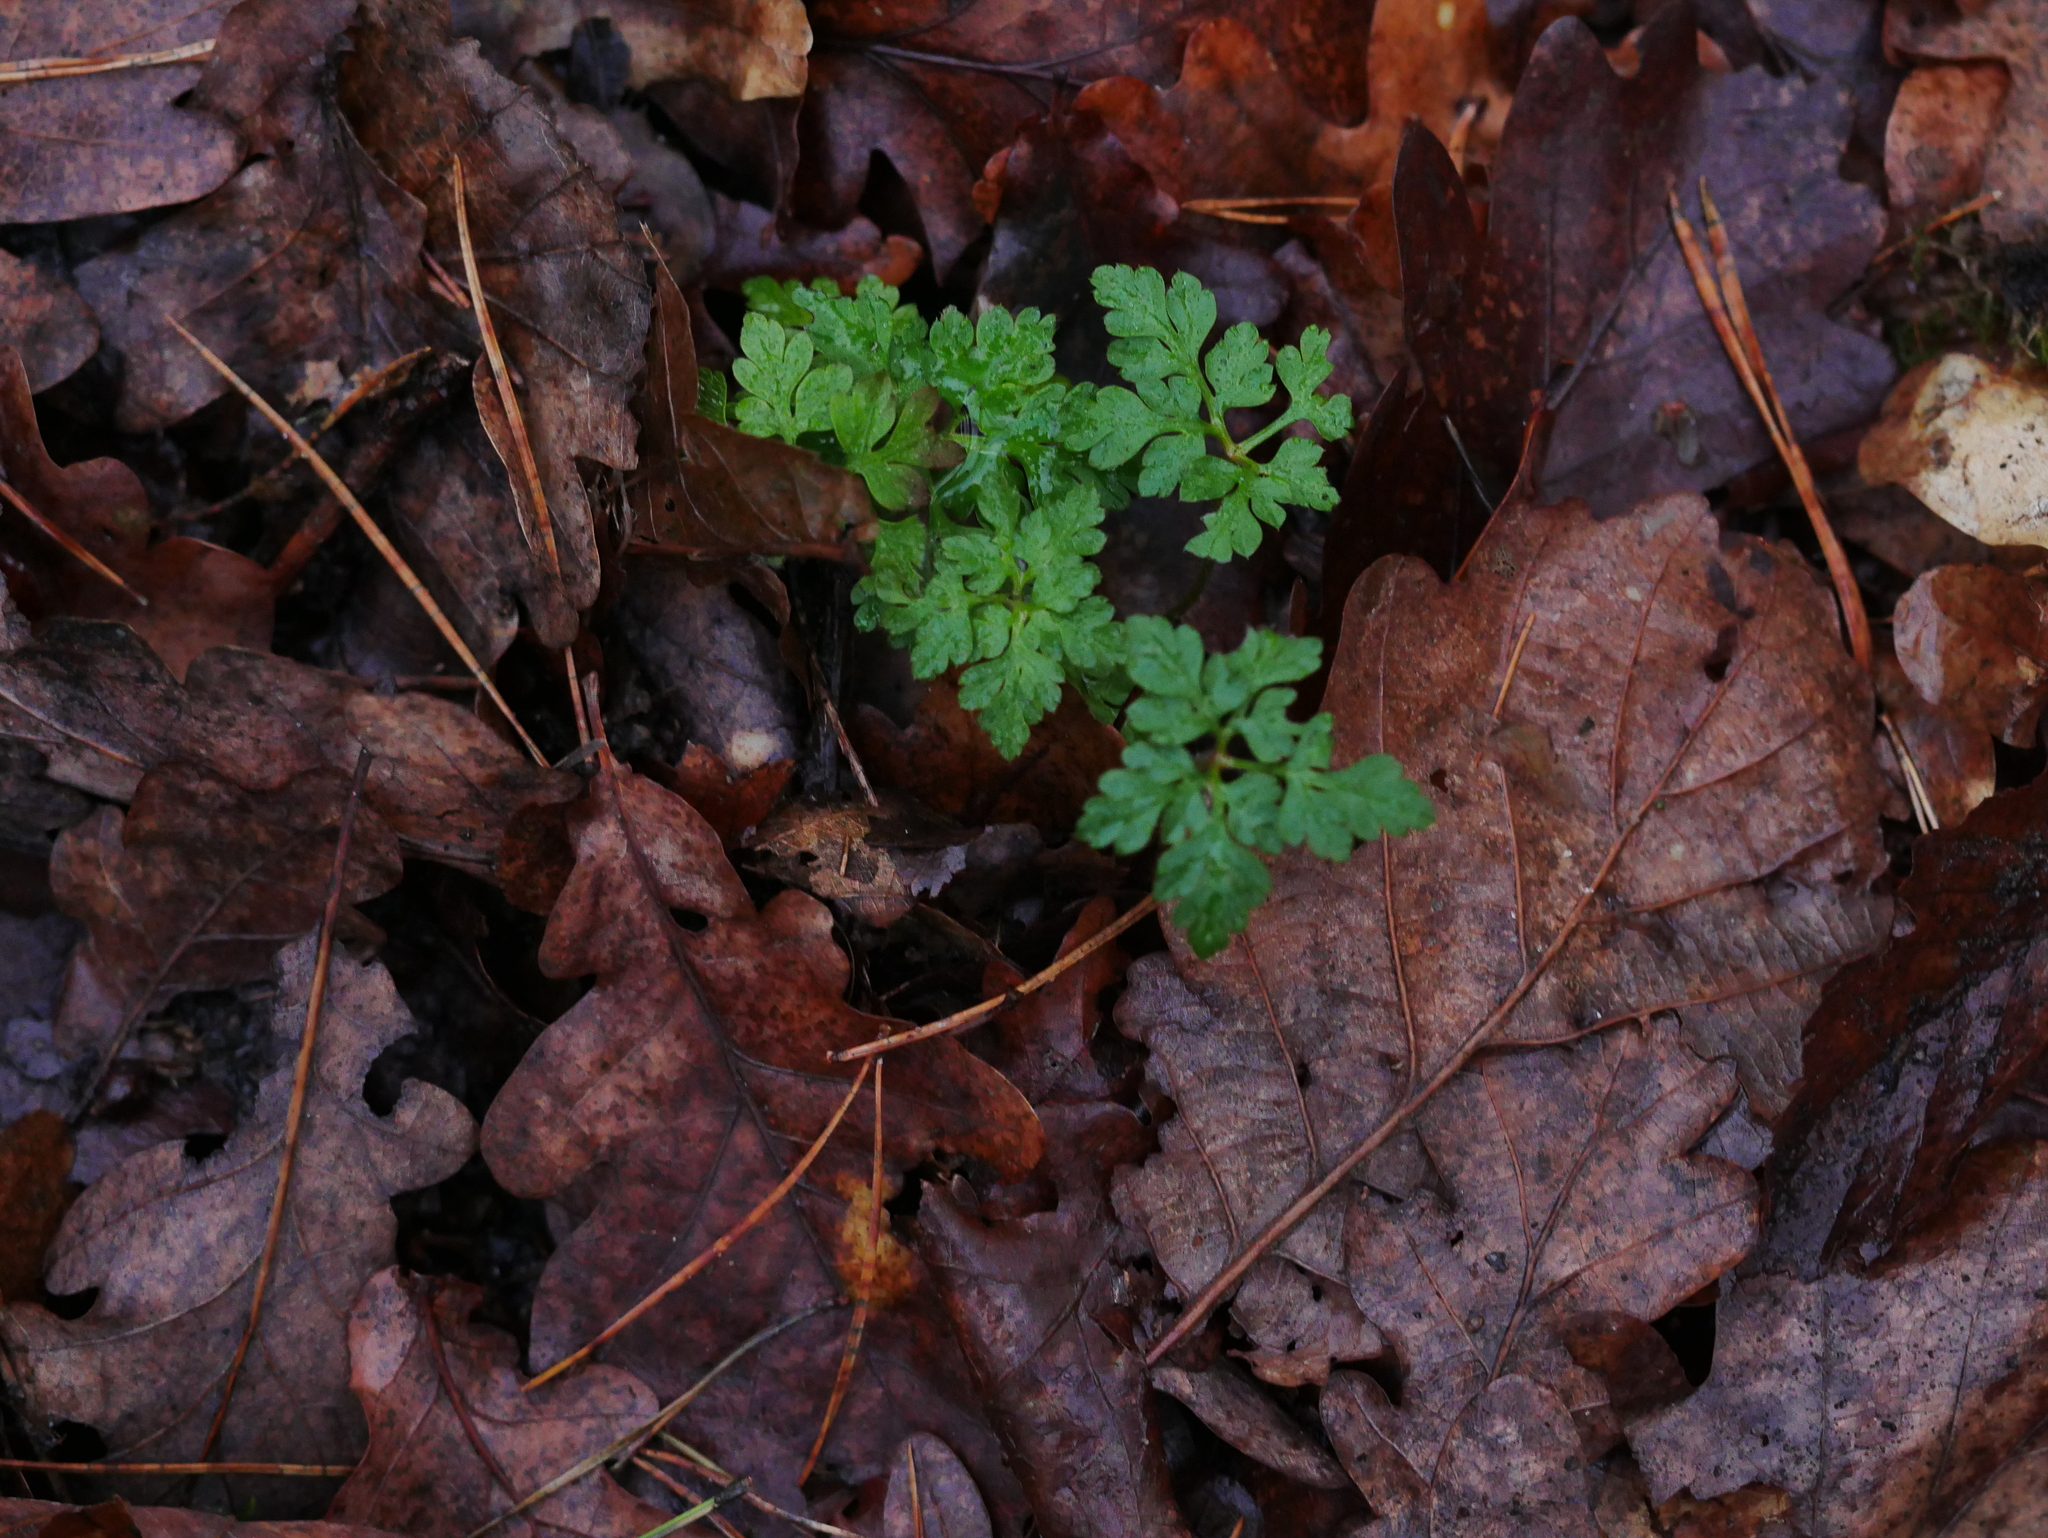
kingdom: Plantae
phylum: Tracheophyta
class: Magnoliopsida
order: Geraniales
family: Geraniaceae
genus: Geranium
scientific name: Geranium robertianum
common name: Herb-robert
